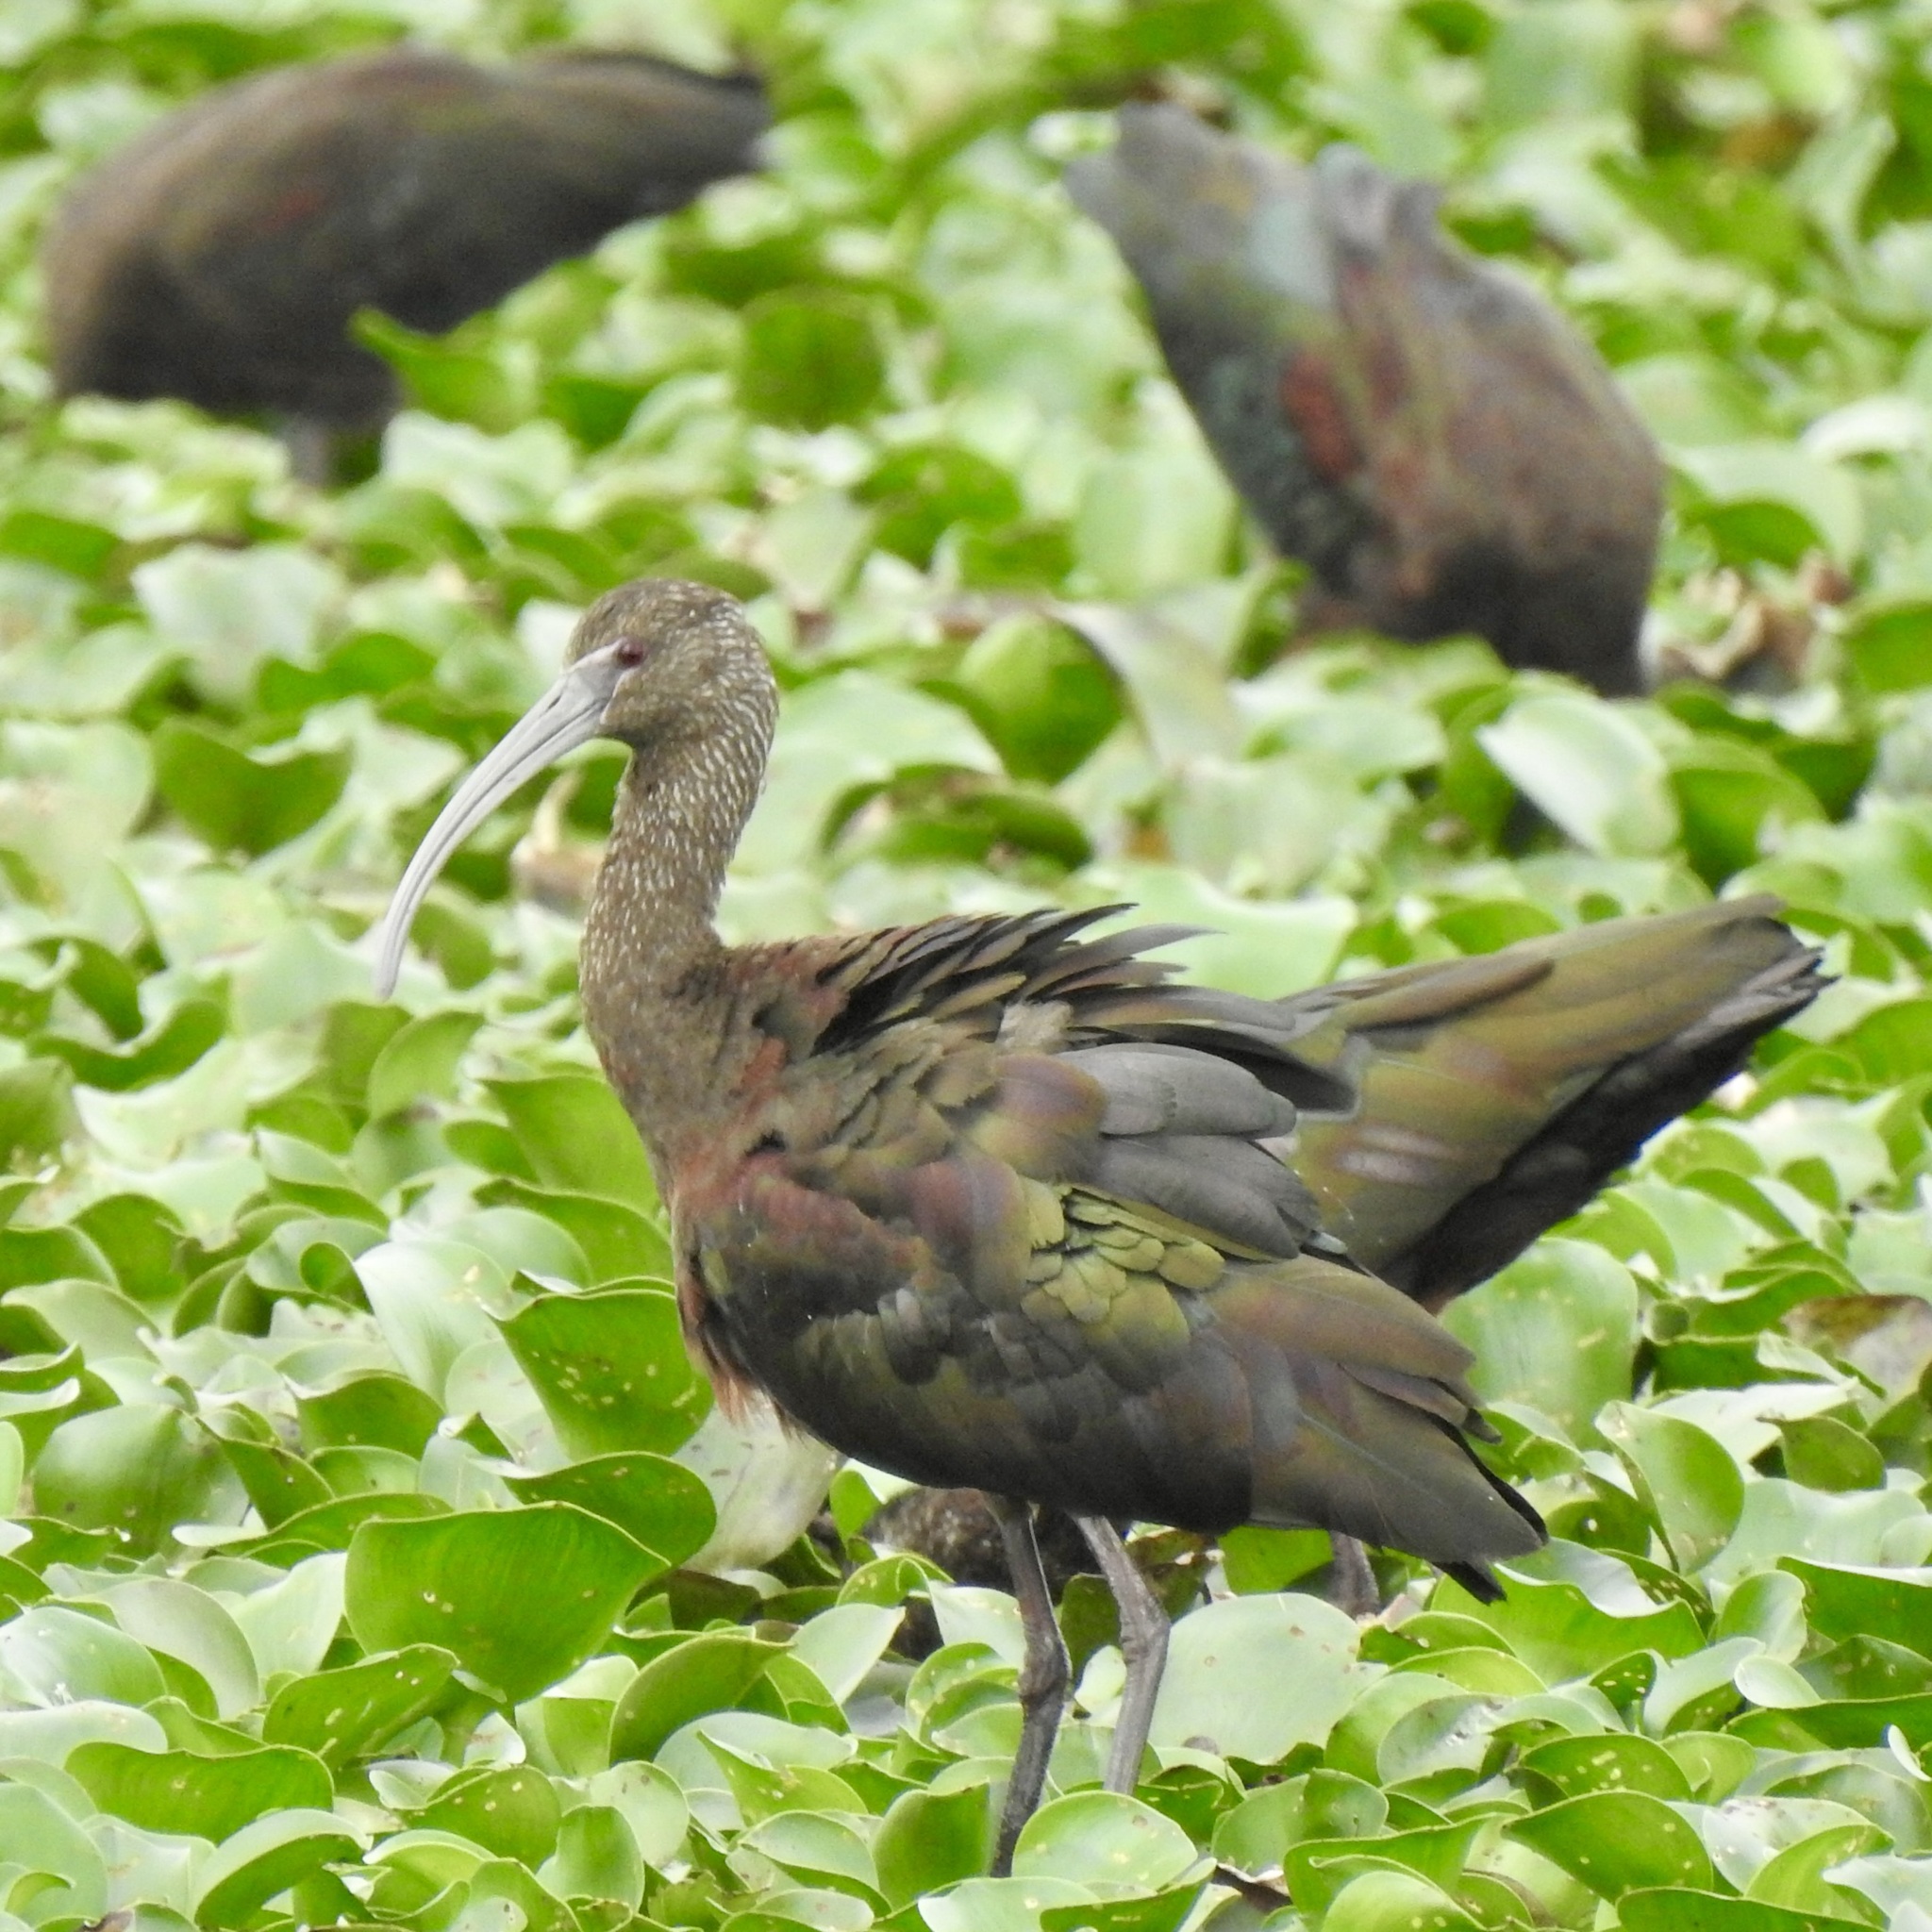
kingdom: Animalia
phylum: Chordata
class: Aves
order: Pelecaniformes
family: Threskiornithidae
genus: Plegadis
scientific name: Plegadis chihi
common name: White-faced ibis
